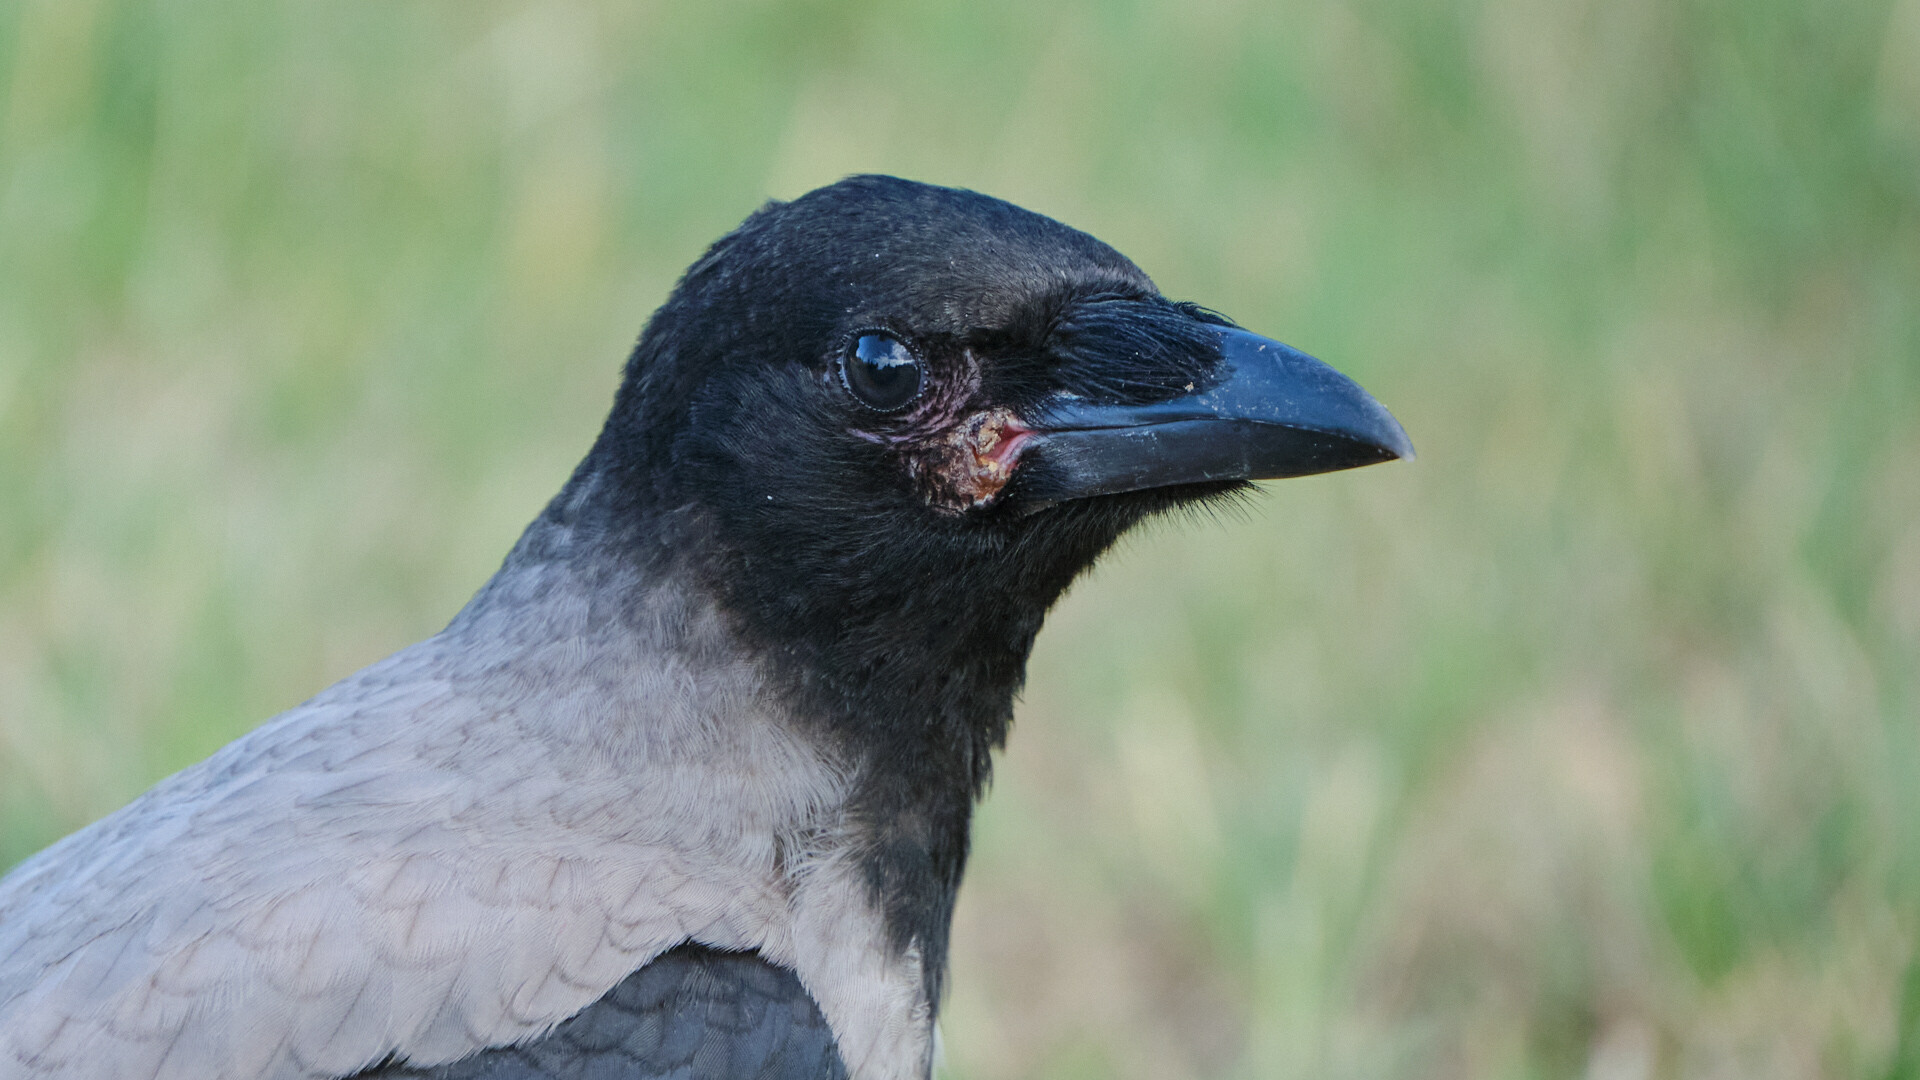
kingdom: Animalia
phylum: Chordata
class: Aves
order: Passeriformes
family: Corvidae
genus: Corvus
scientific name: Corvus cornix
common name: Hooded crow
